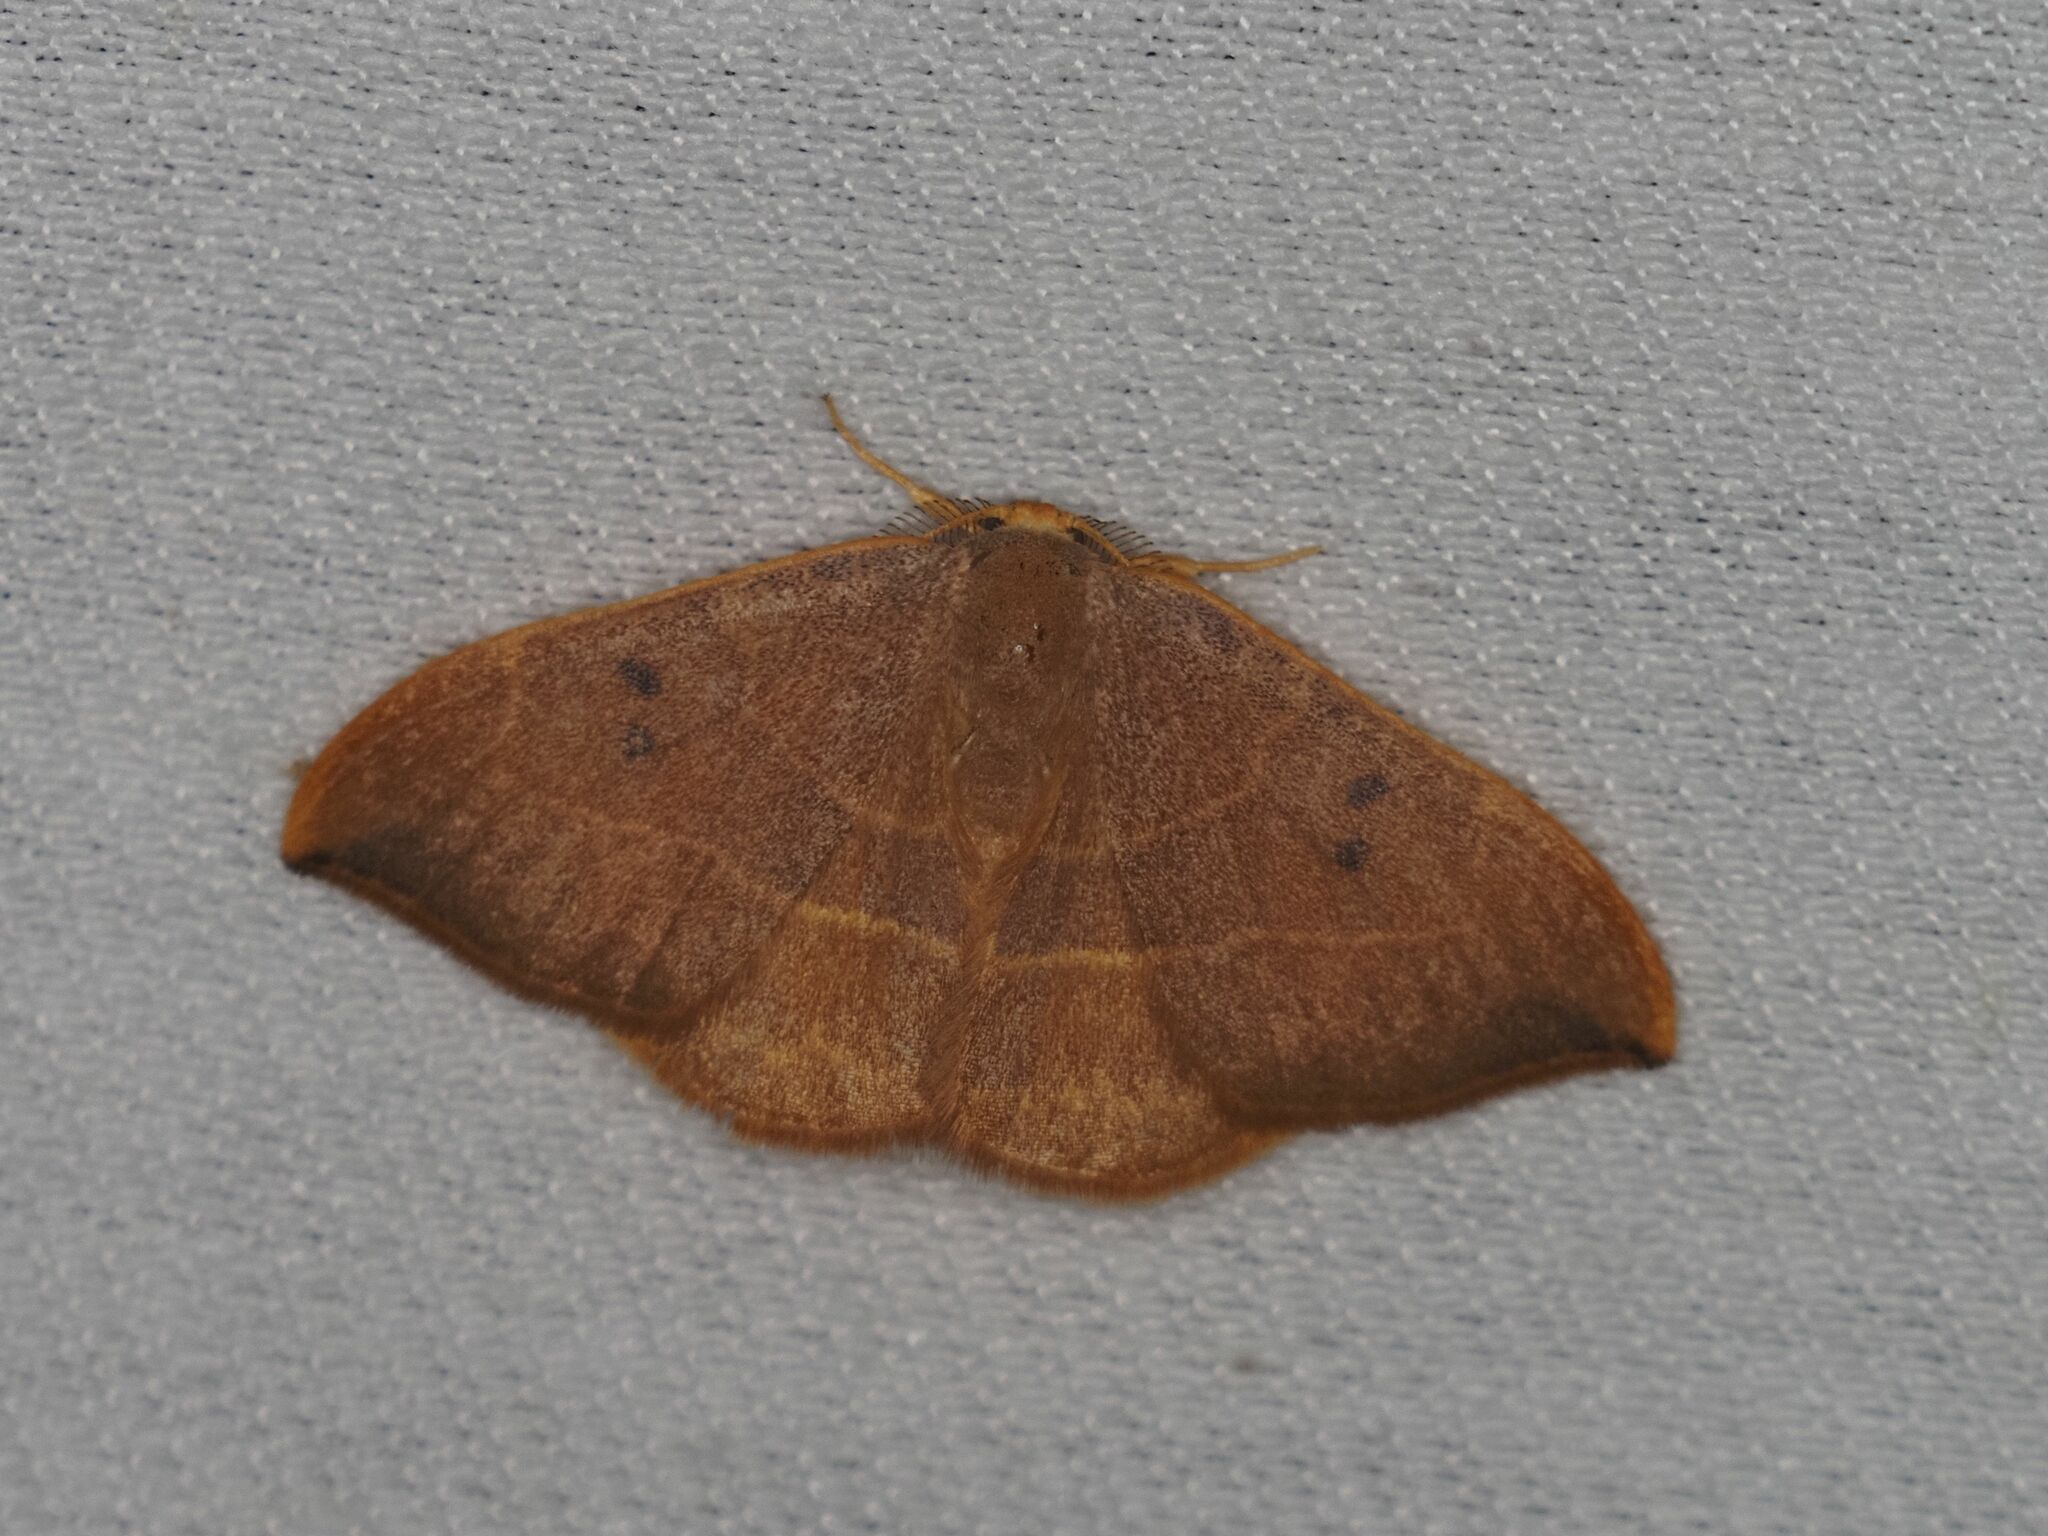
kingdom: Animalia
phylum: Arthropoda
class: Insecta
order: Lepidoptera
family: Drepanidae
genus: Watsonalla
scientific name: Watsonalla binaria
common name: Oak hook-tip
